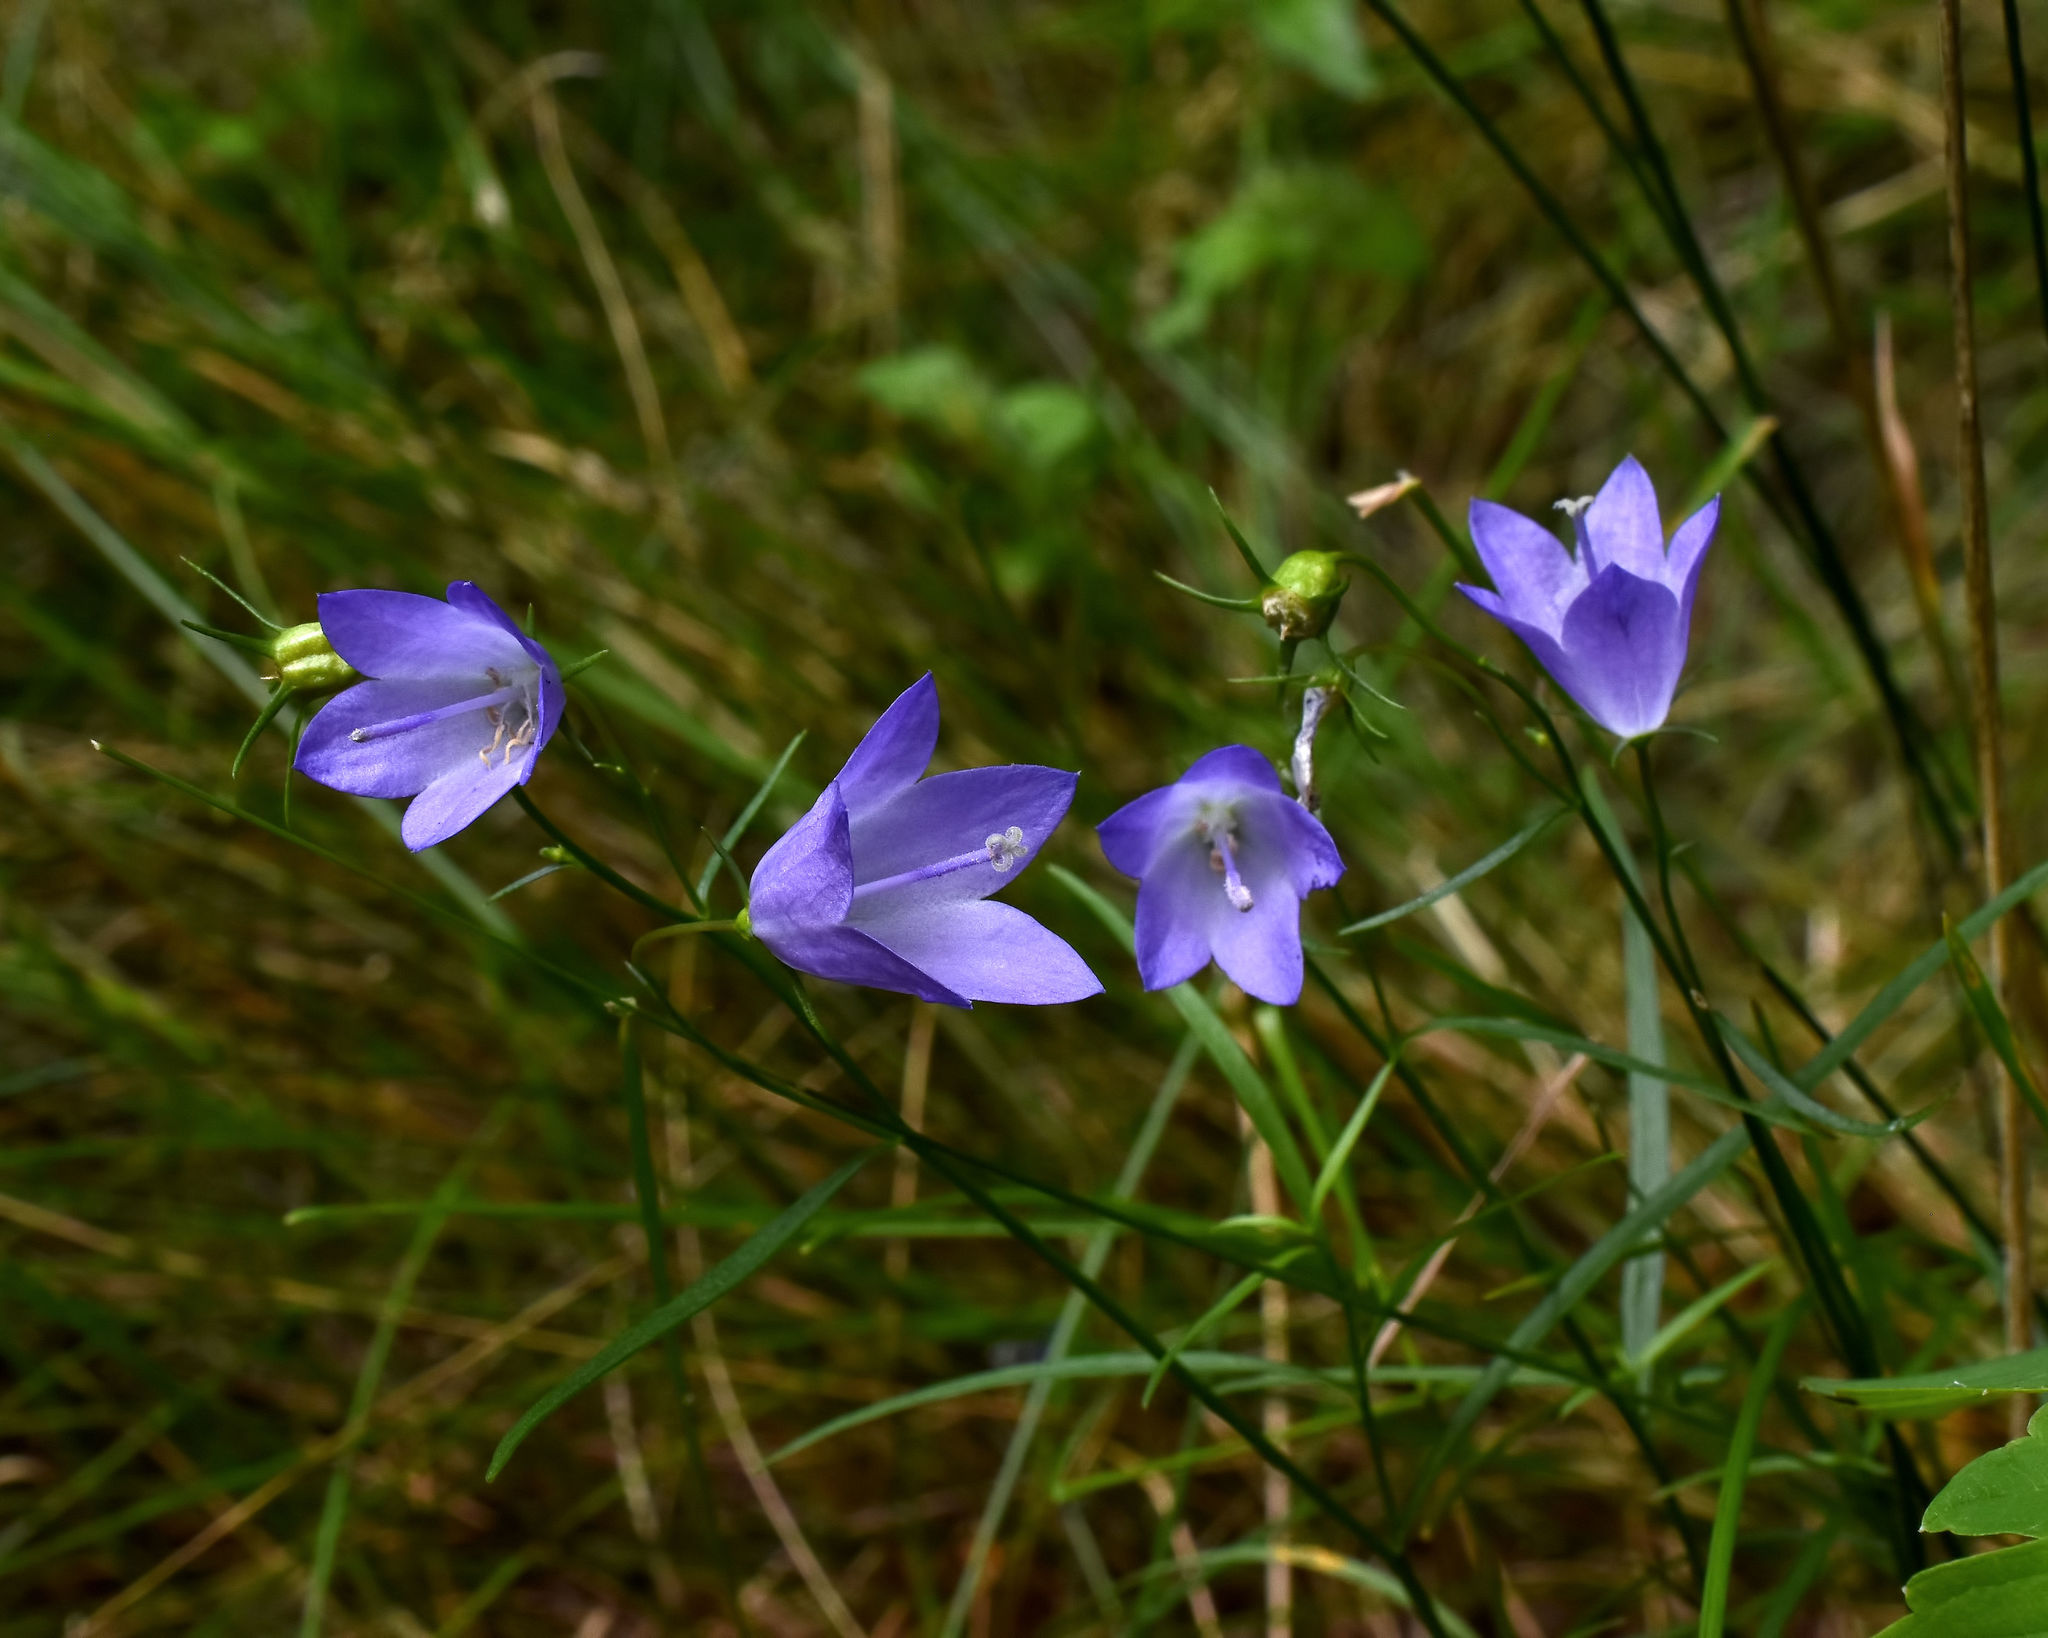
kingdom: Plantae
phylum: Tracheophyta
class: Magnoliopsida
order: Asterales
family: Campanulaceae
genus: Campanula
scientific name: Campanula intercedens
